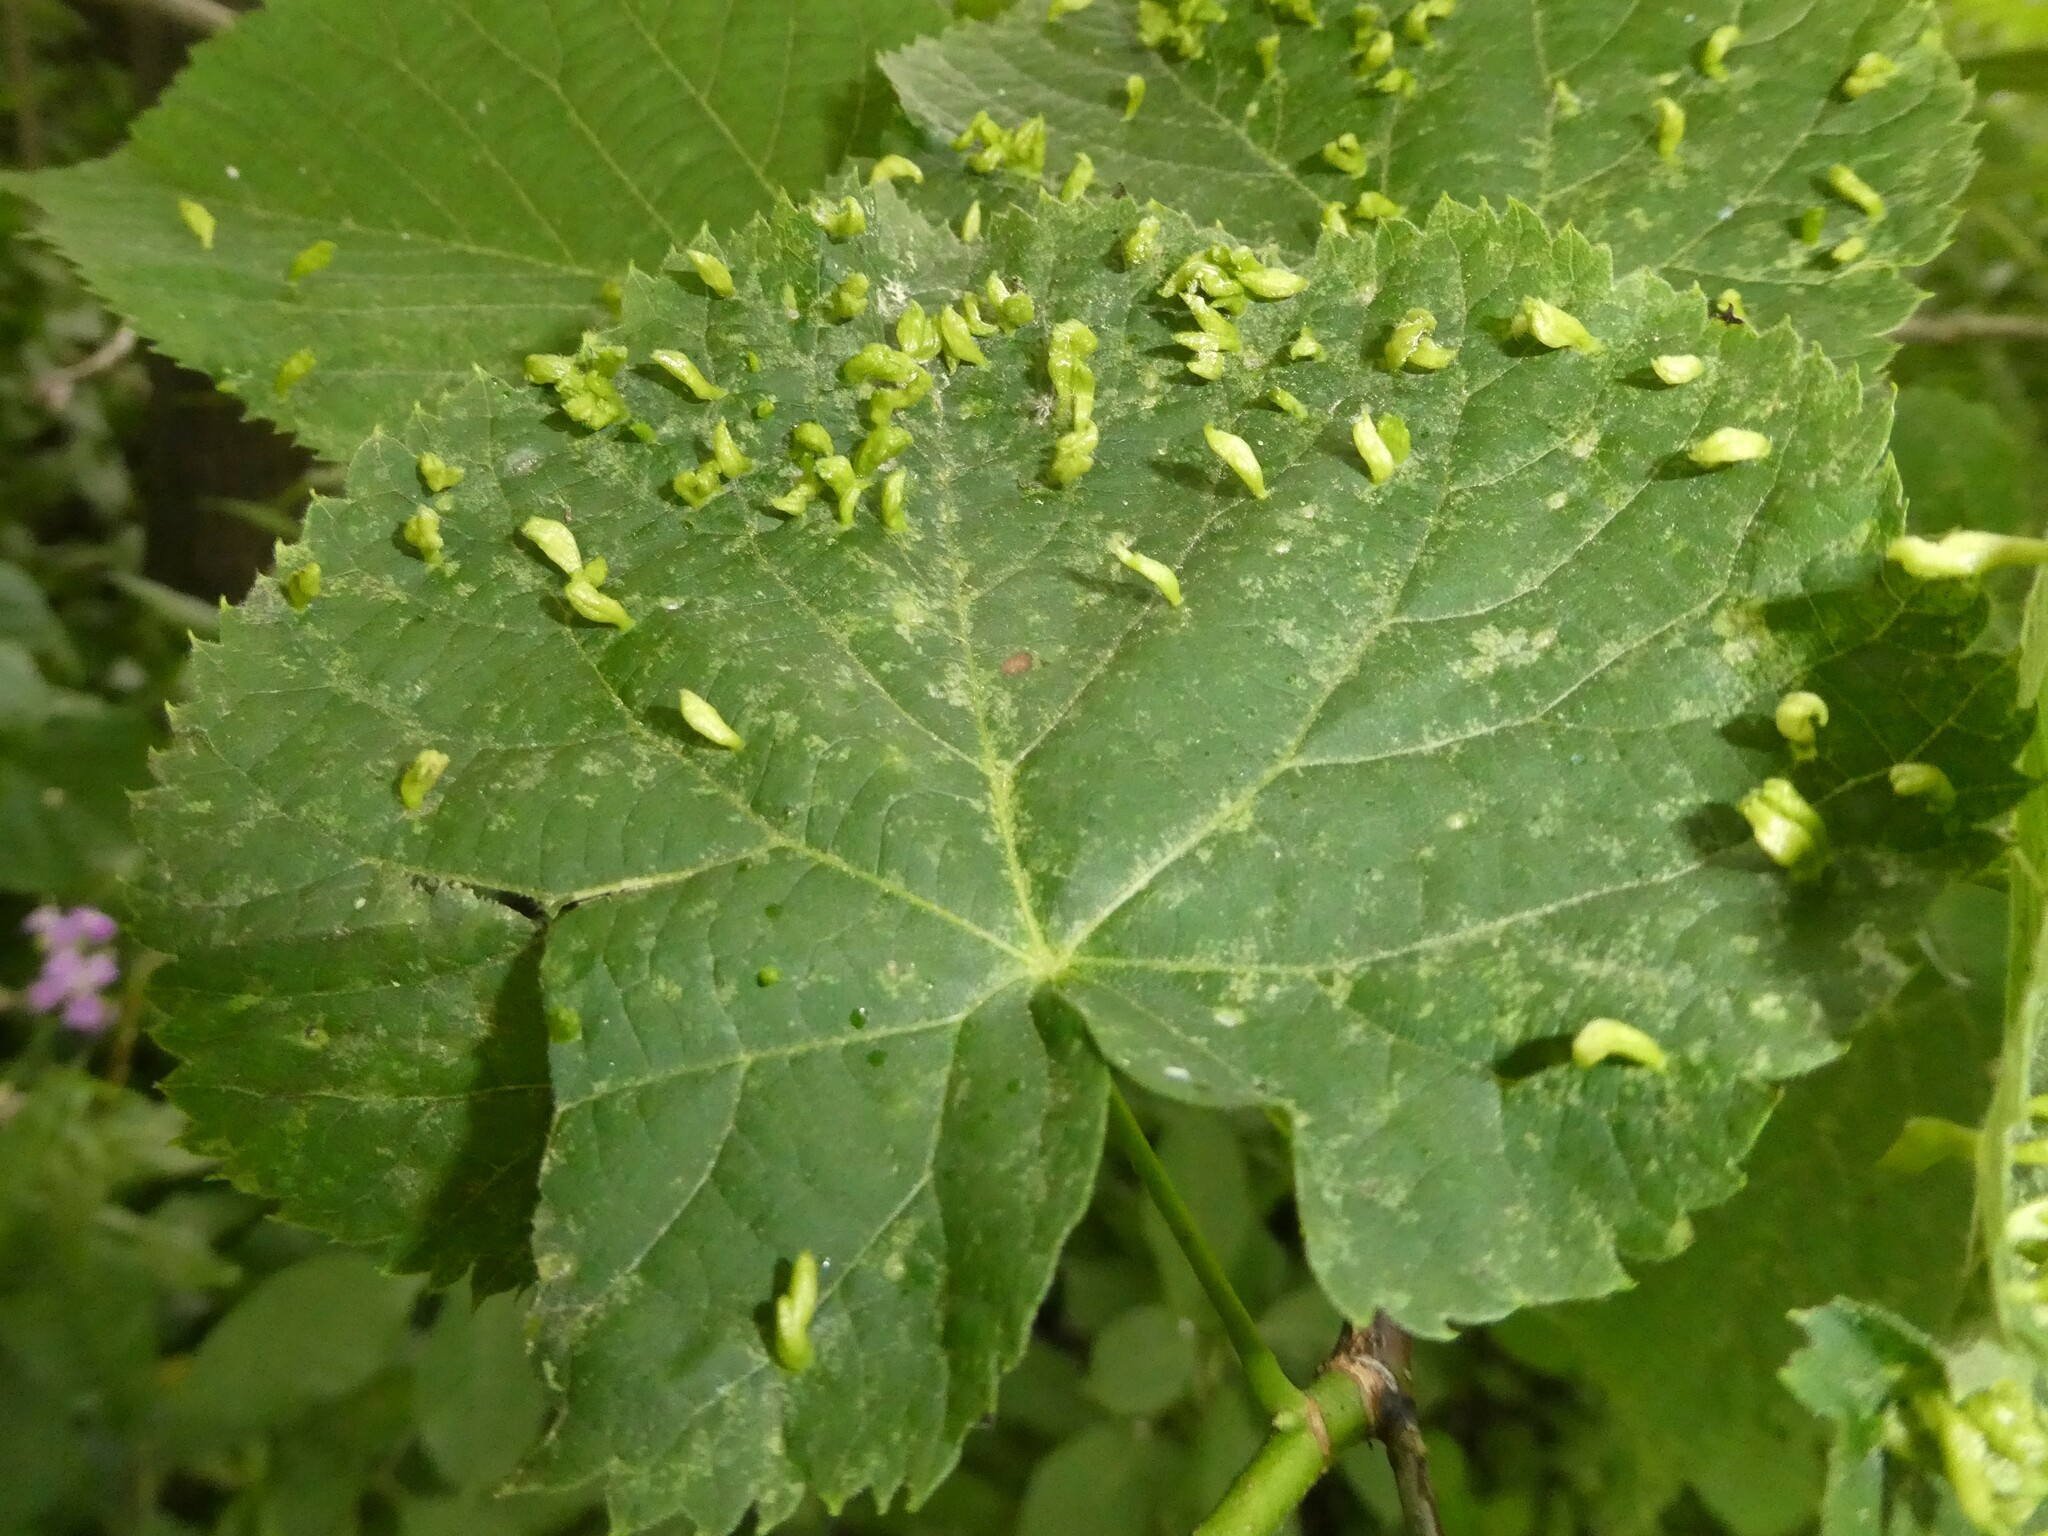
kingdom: Animalia
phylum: Arthropoda
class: Arachnida
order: Trombidiformes
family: Eriophyidae
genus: Eriophyes
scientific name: Eriophyes tiliae
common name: Red nail gall mite
